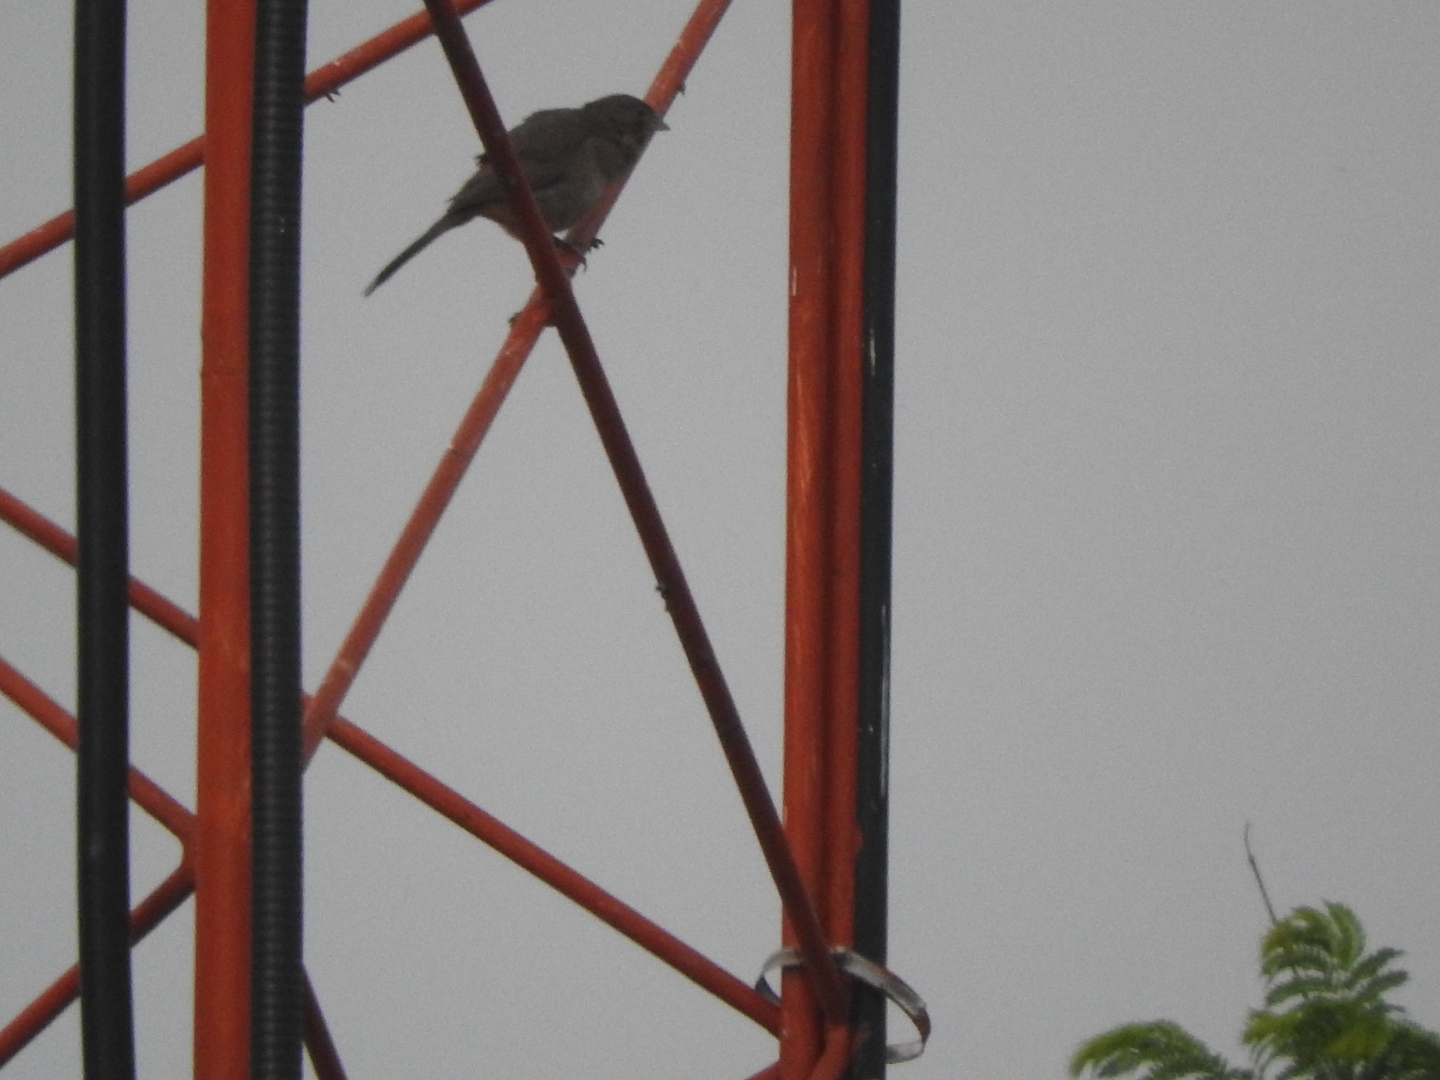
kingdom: Animalia
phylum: Chordata
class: Aves
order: Passeriformes
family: Passerellidae
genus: Melozone
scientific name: Melozone fusca
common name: Canyon towhee
